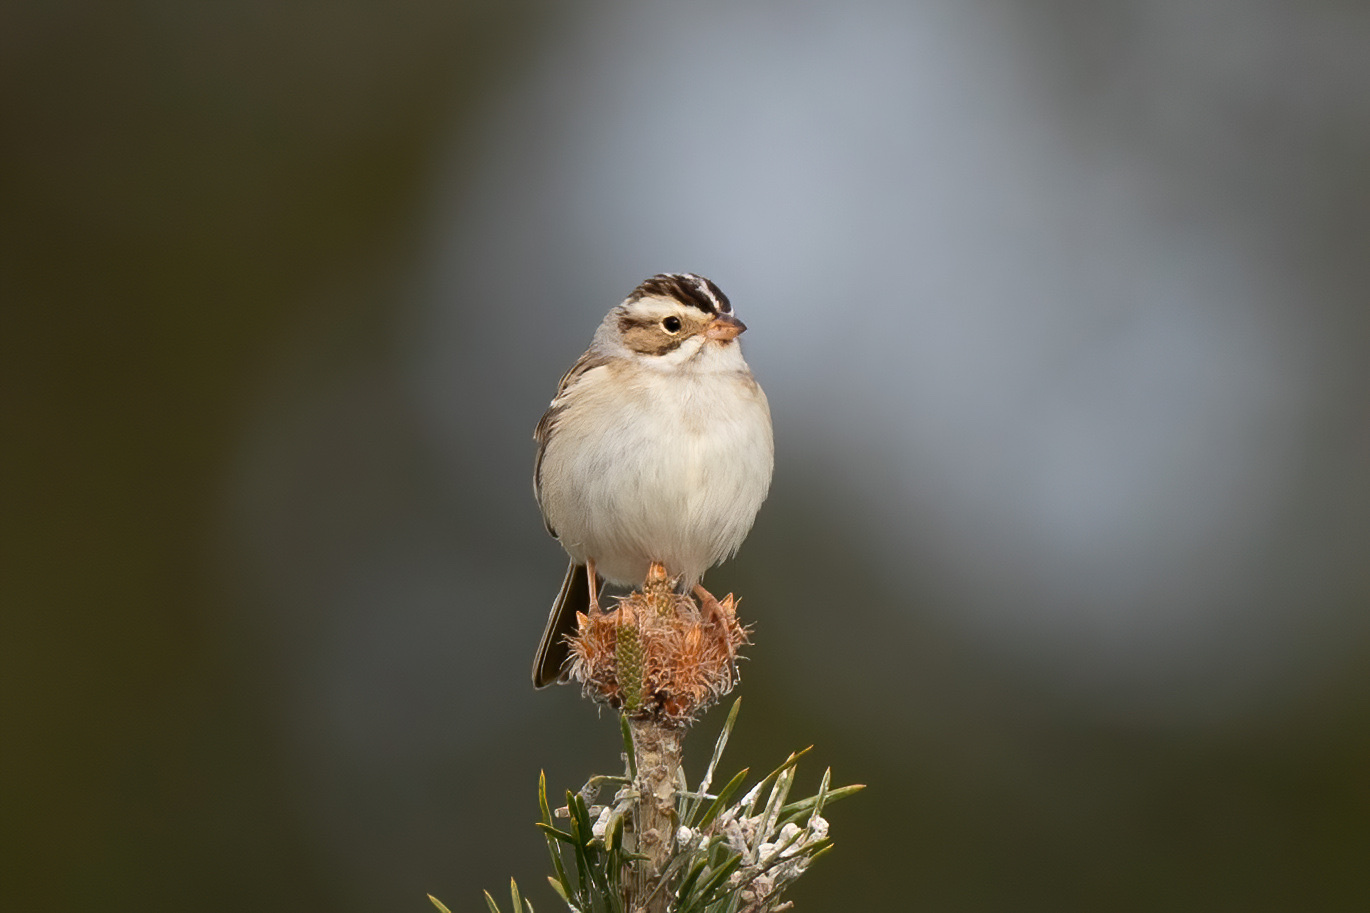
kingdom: Animalia
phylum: Chordata
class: Aves
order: Passeriformes
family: Passerellidae
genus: Spizella
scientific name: Spizella pallida
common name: Clay-colored sparrow
